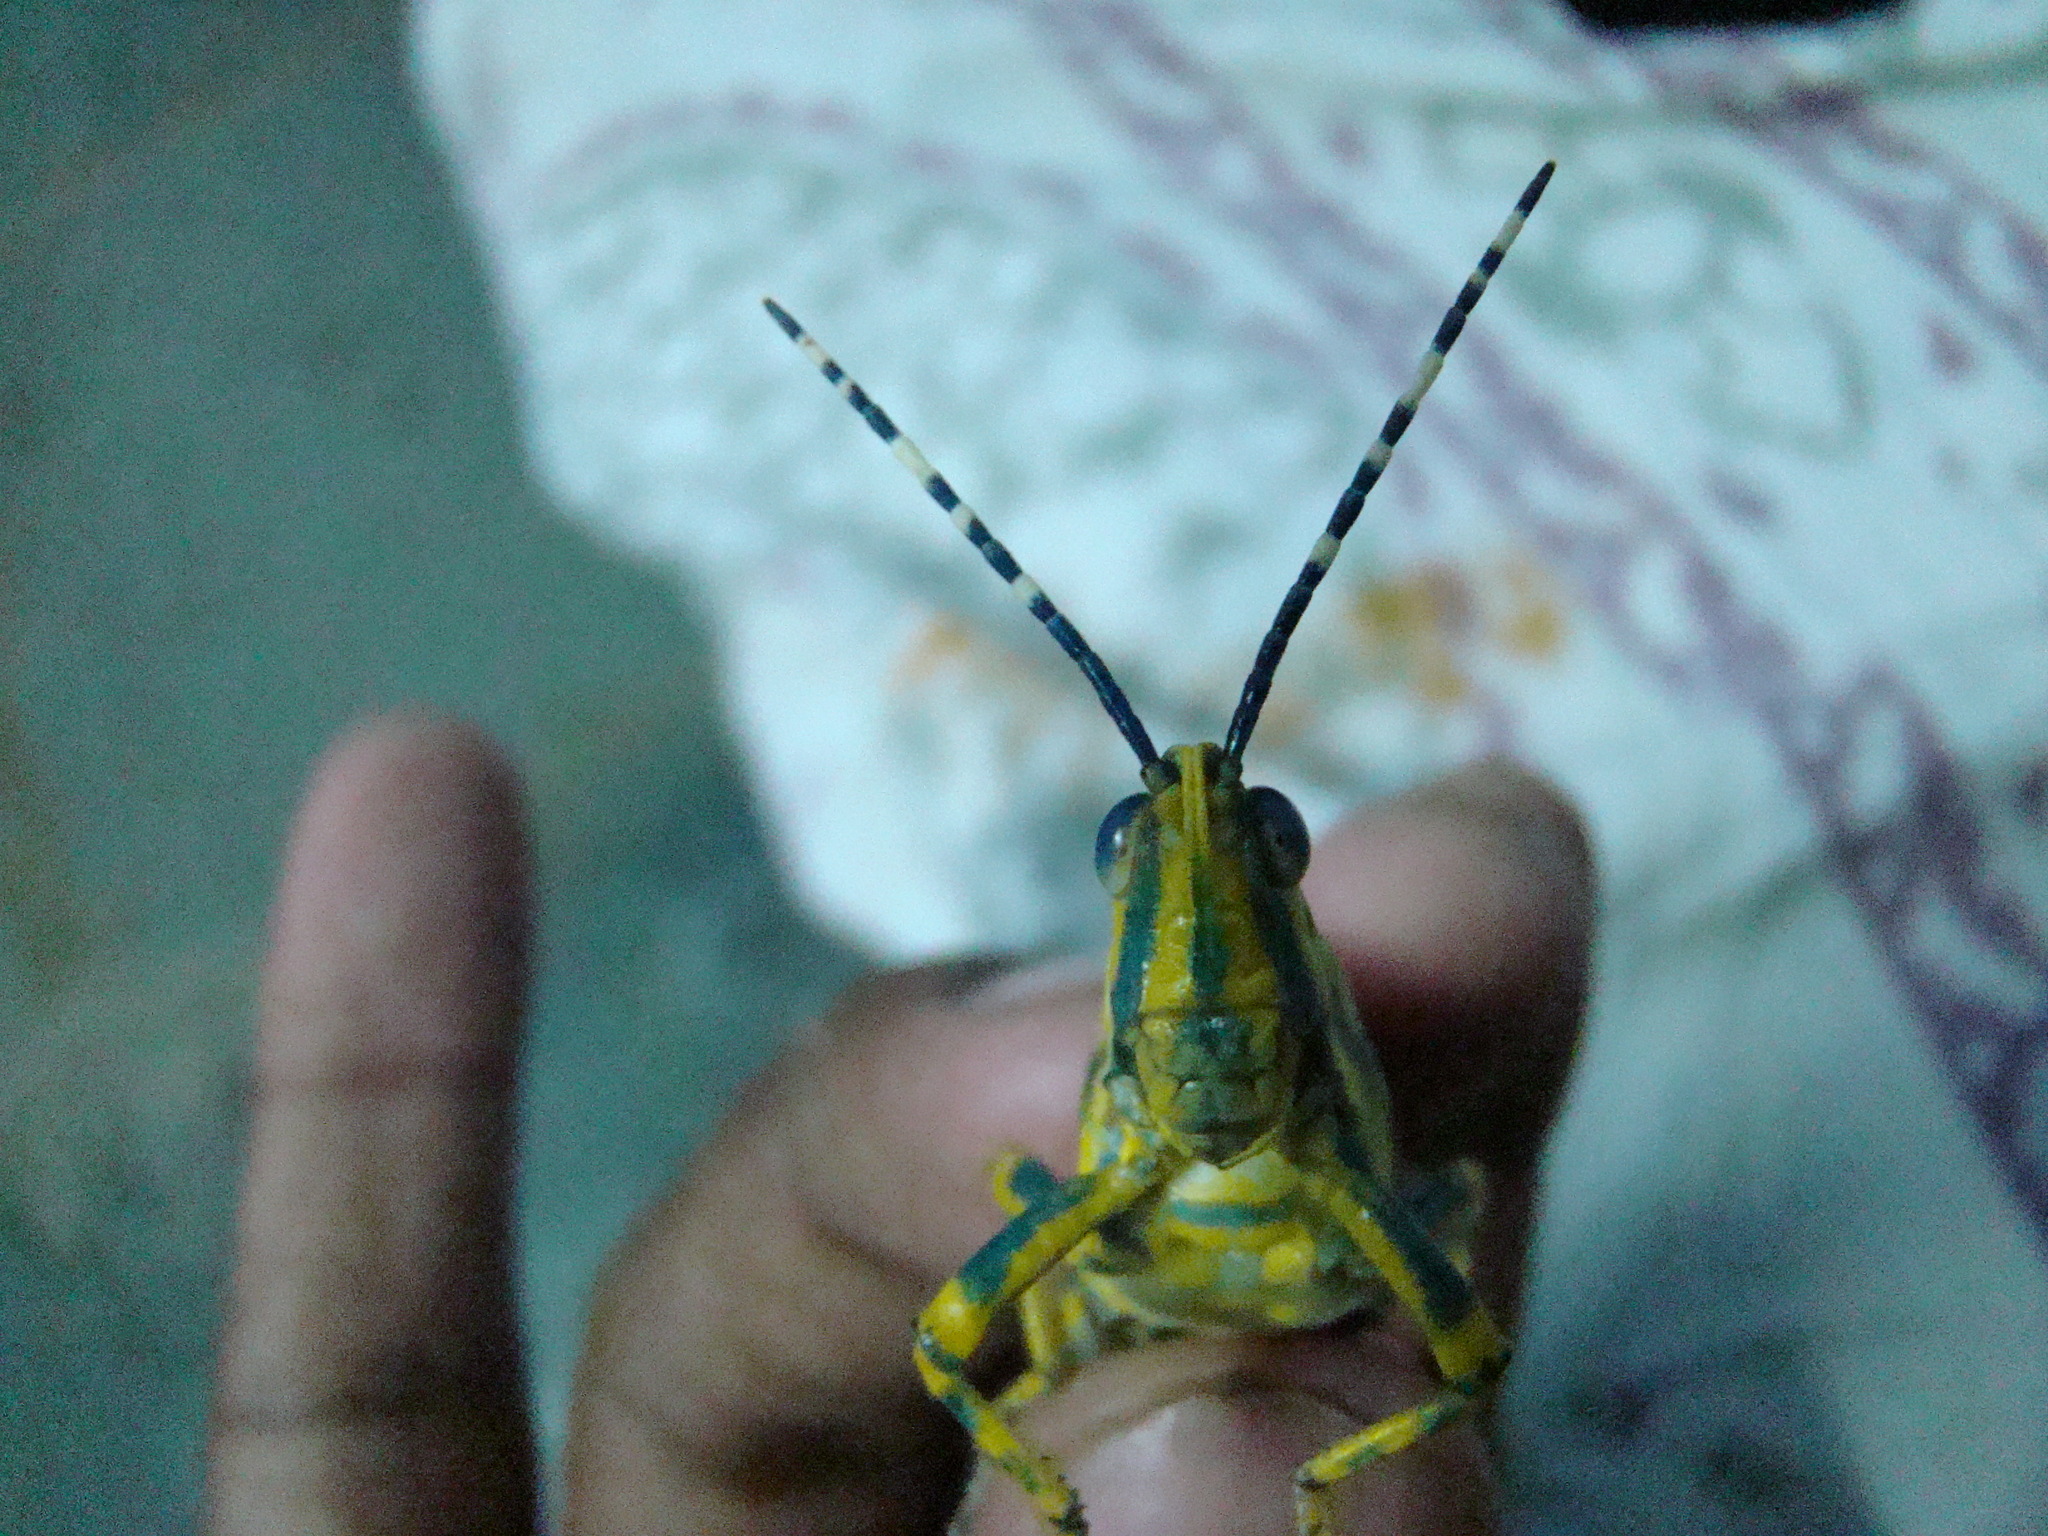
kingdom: Animalia
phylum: Arthropoda
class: Insecta
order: Orthoptera
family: Pyrgomorphidae
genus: Poekilocerus
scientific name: Poekilocerus pictus
